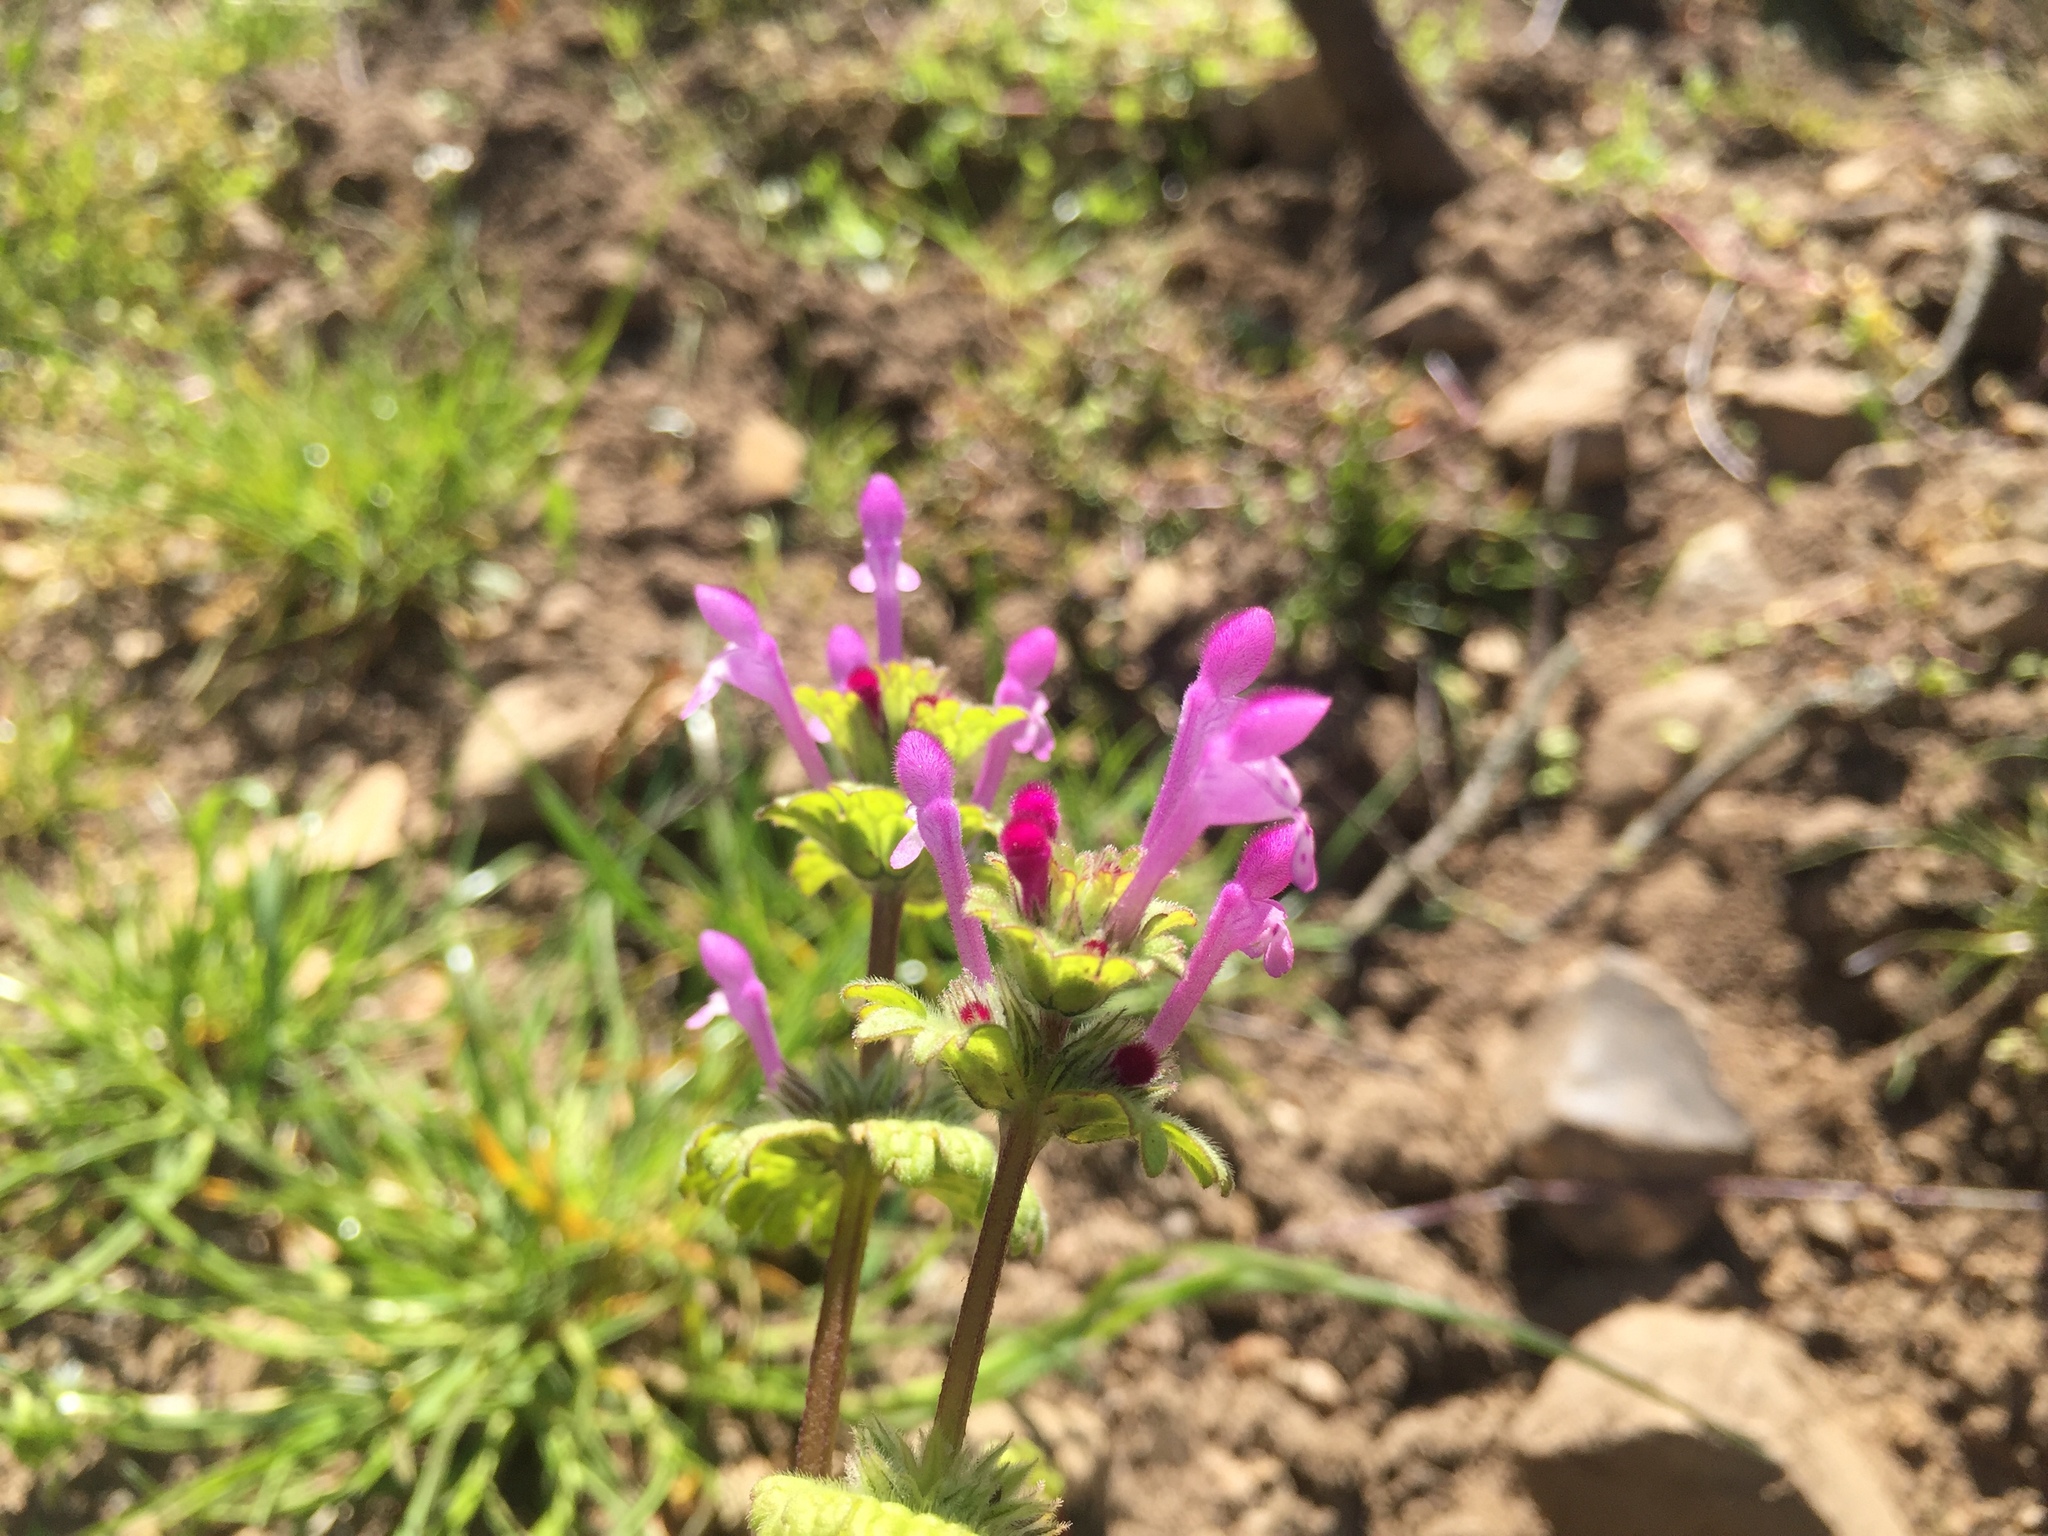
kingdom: Plantae
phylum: Tracheophyta
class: Magnoliopsida
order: Lamiales
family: Lamiaceae
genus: Lamium
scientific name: Lamium amplexicaule
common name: Henbit dead-nettle
